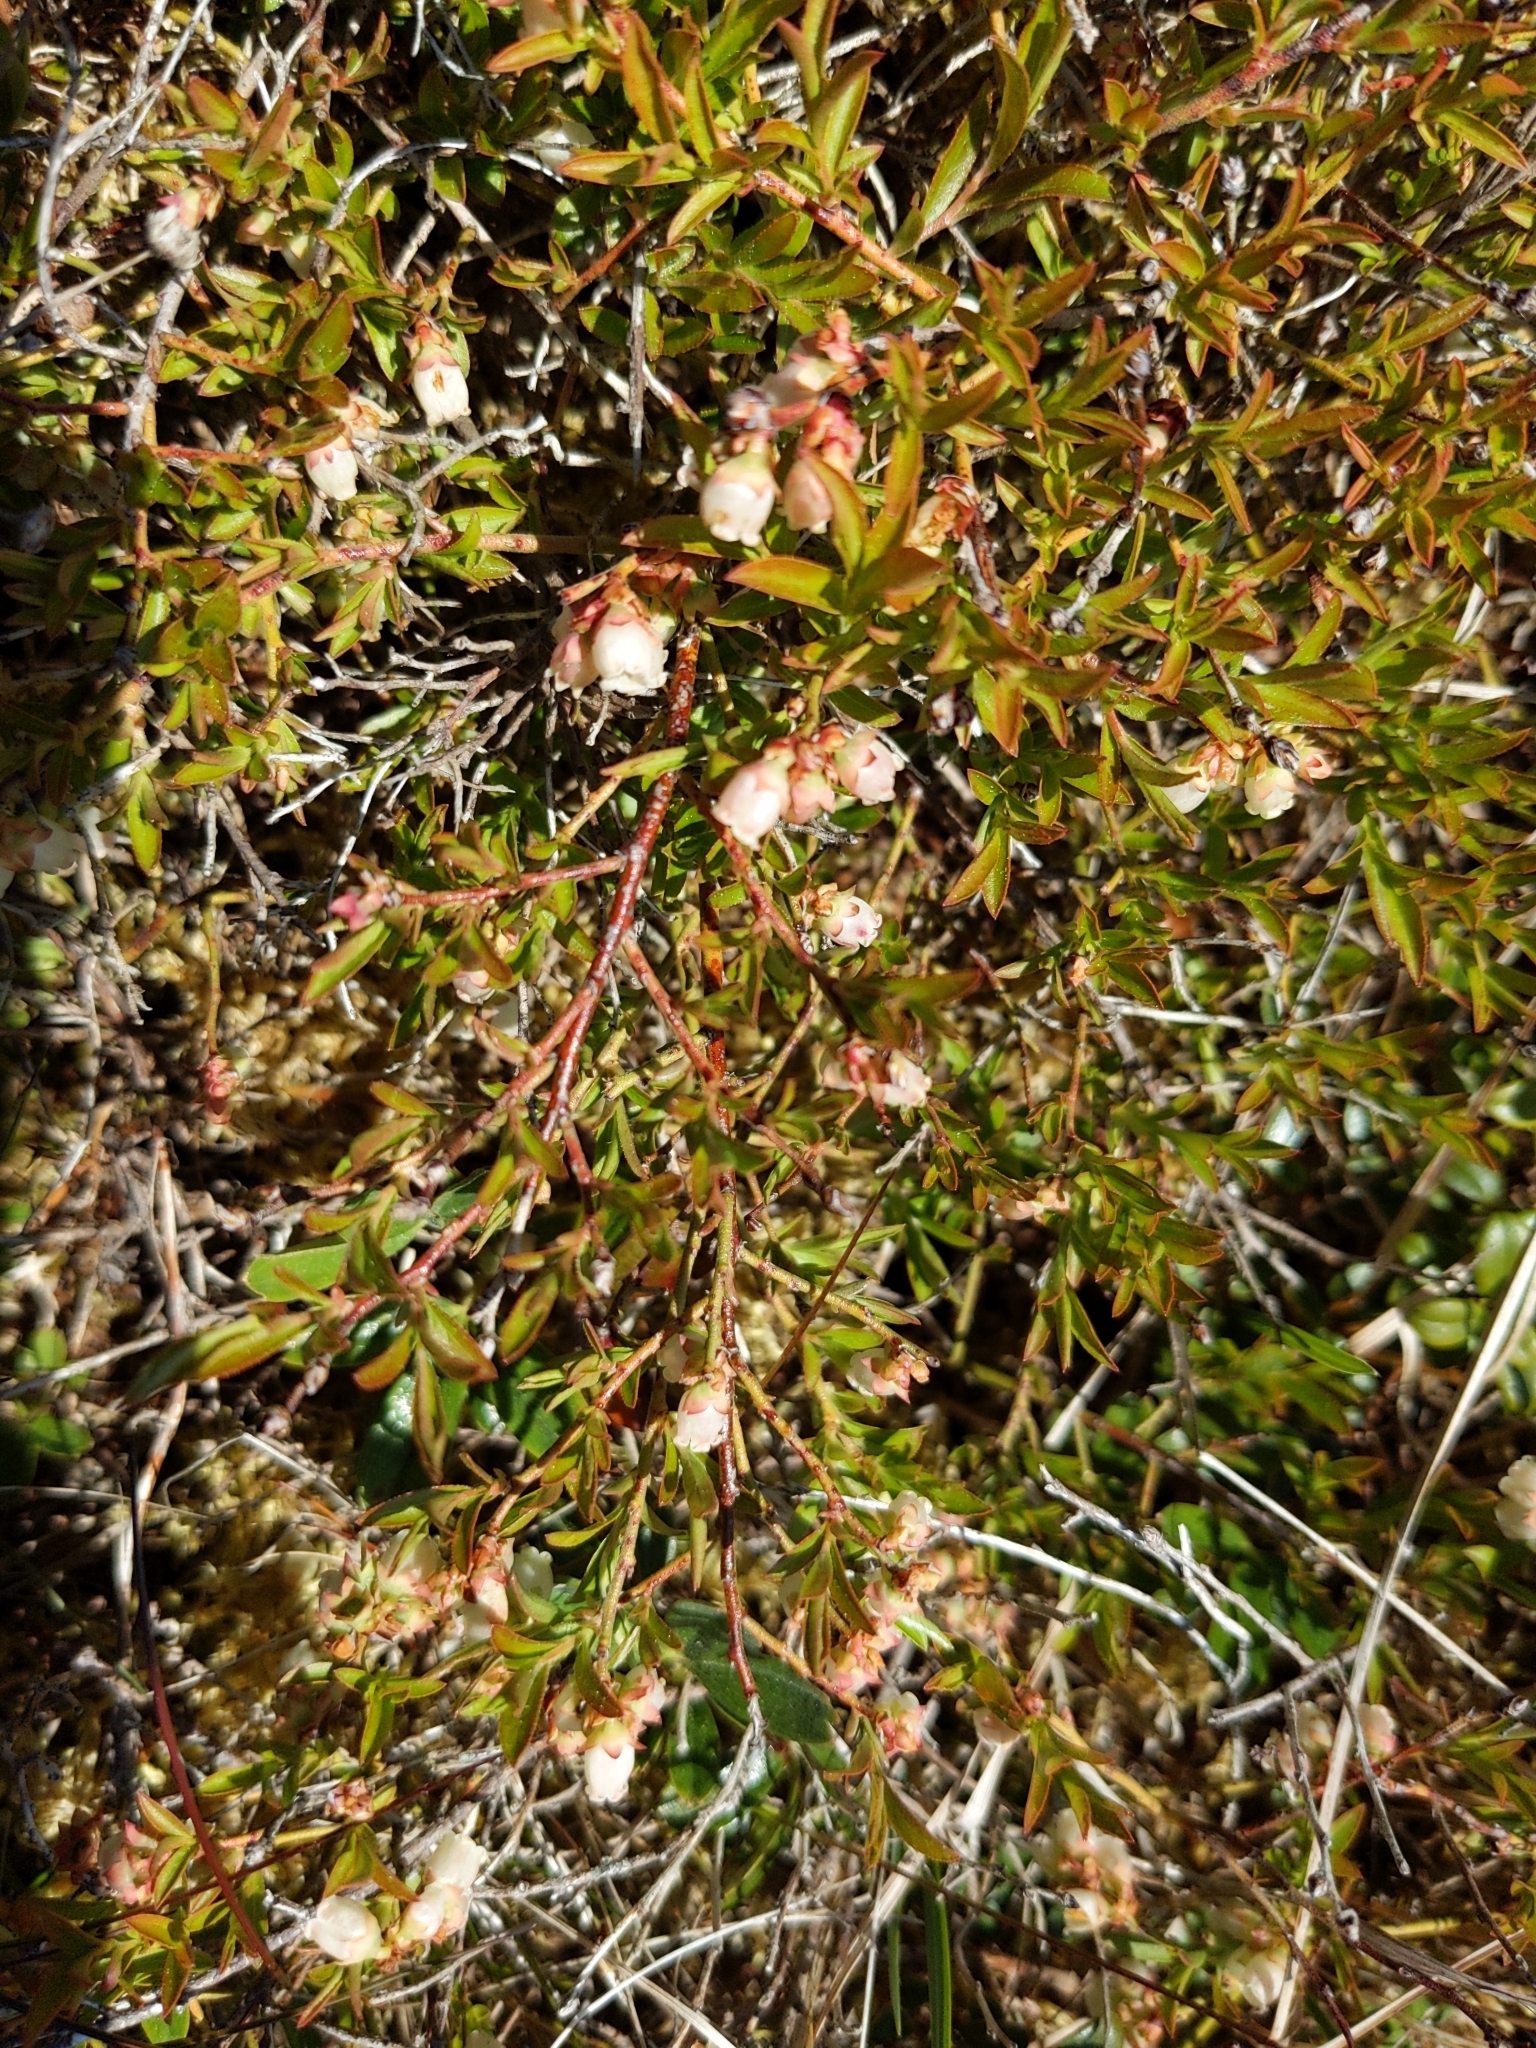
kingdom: Plantae
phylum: Tracheophyta
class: Magnoliopsida
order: Ericales
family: Ericaceae
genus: Vaccinium
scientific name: Vaccinium boreale
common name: Northern blueberry
